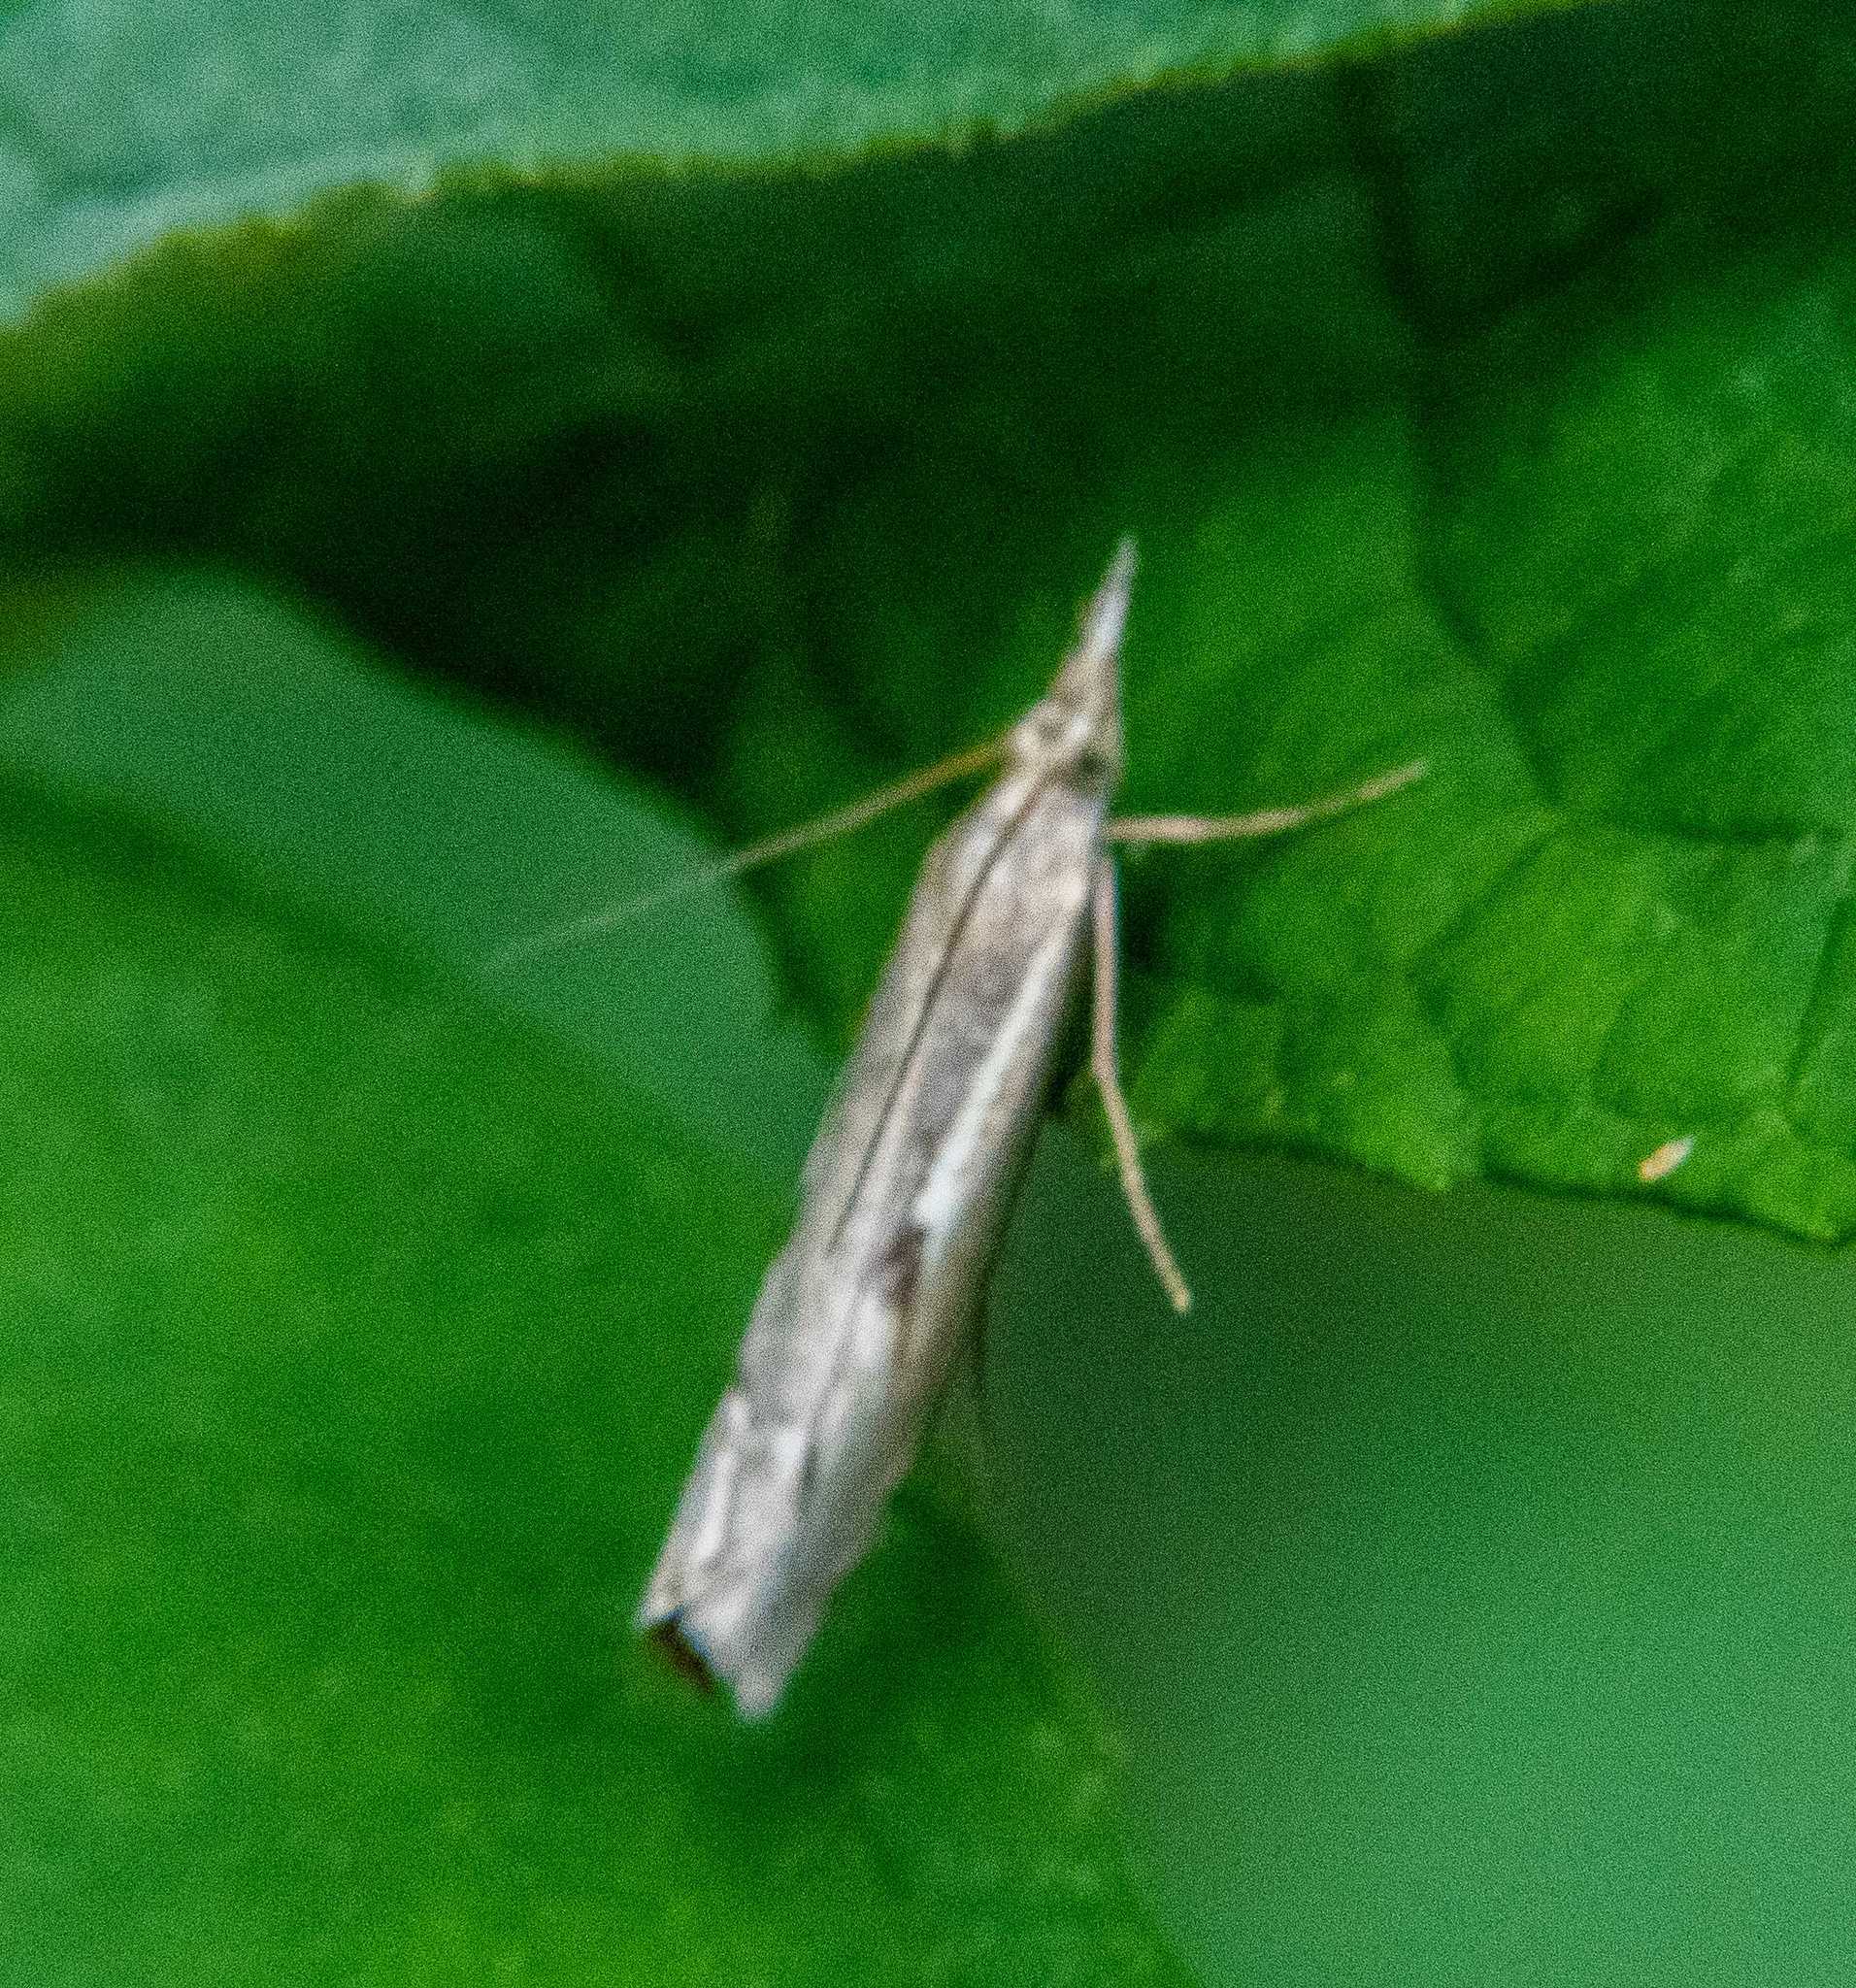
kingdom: Animalia
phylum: Arthropoda
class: Insecta
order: Lepidoptera
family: Crambidae
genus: Agriphila
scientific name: Agriphila geniculea
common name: Elbow-stripe grass-veneer
